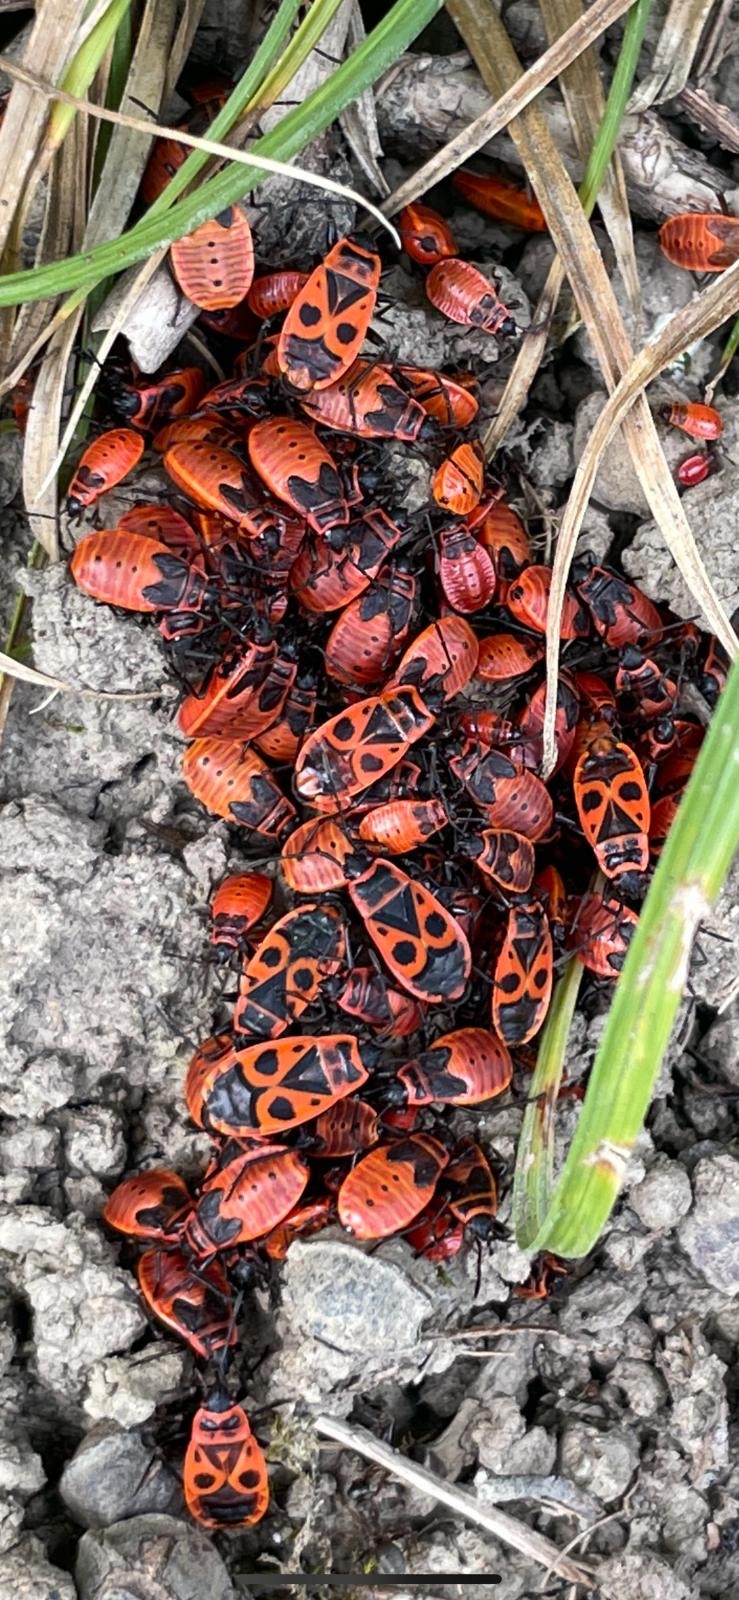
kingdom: Animalia
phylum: Arthropoda
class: Insecta
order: Hemiptera
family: Pyrrhocoridae
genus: Pyrrhocoris
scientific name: Pyrrhocoris apterus
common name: Firebug
